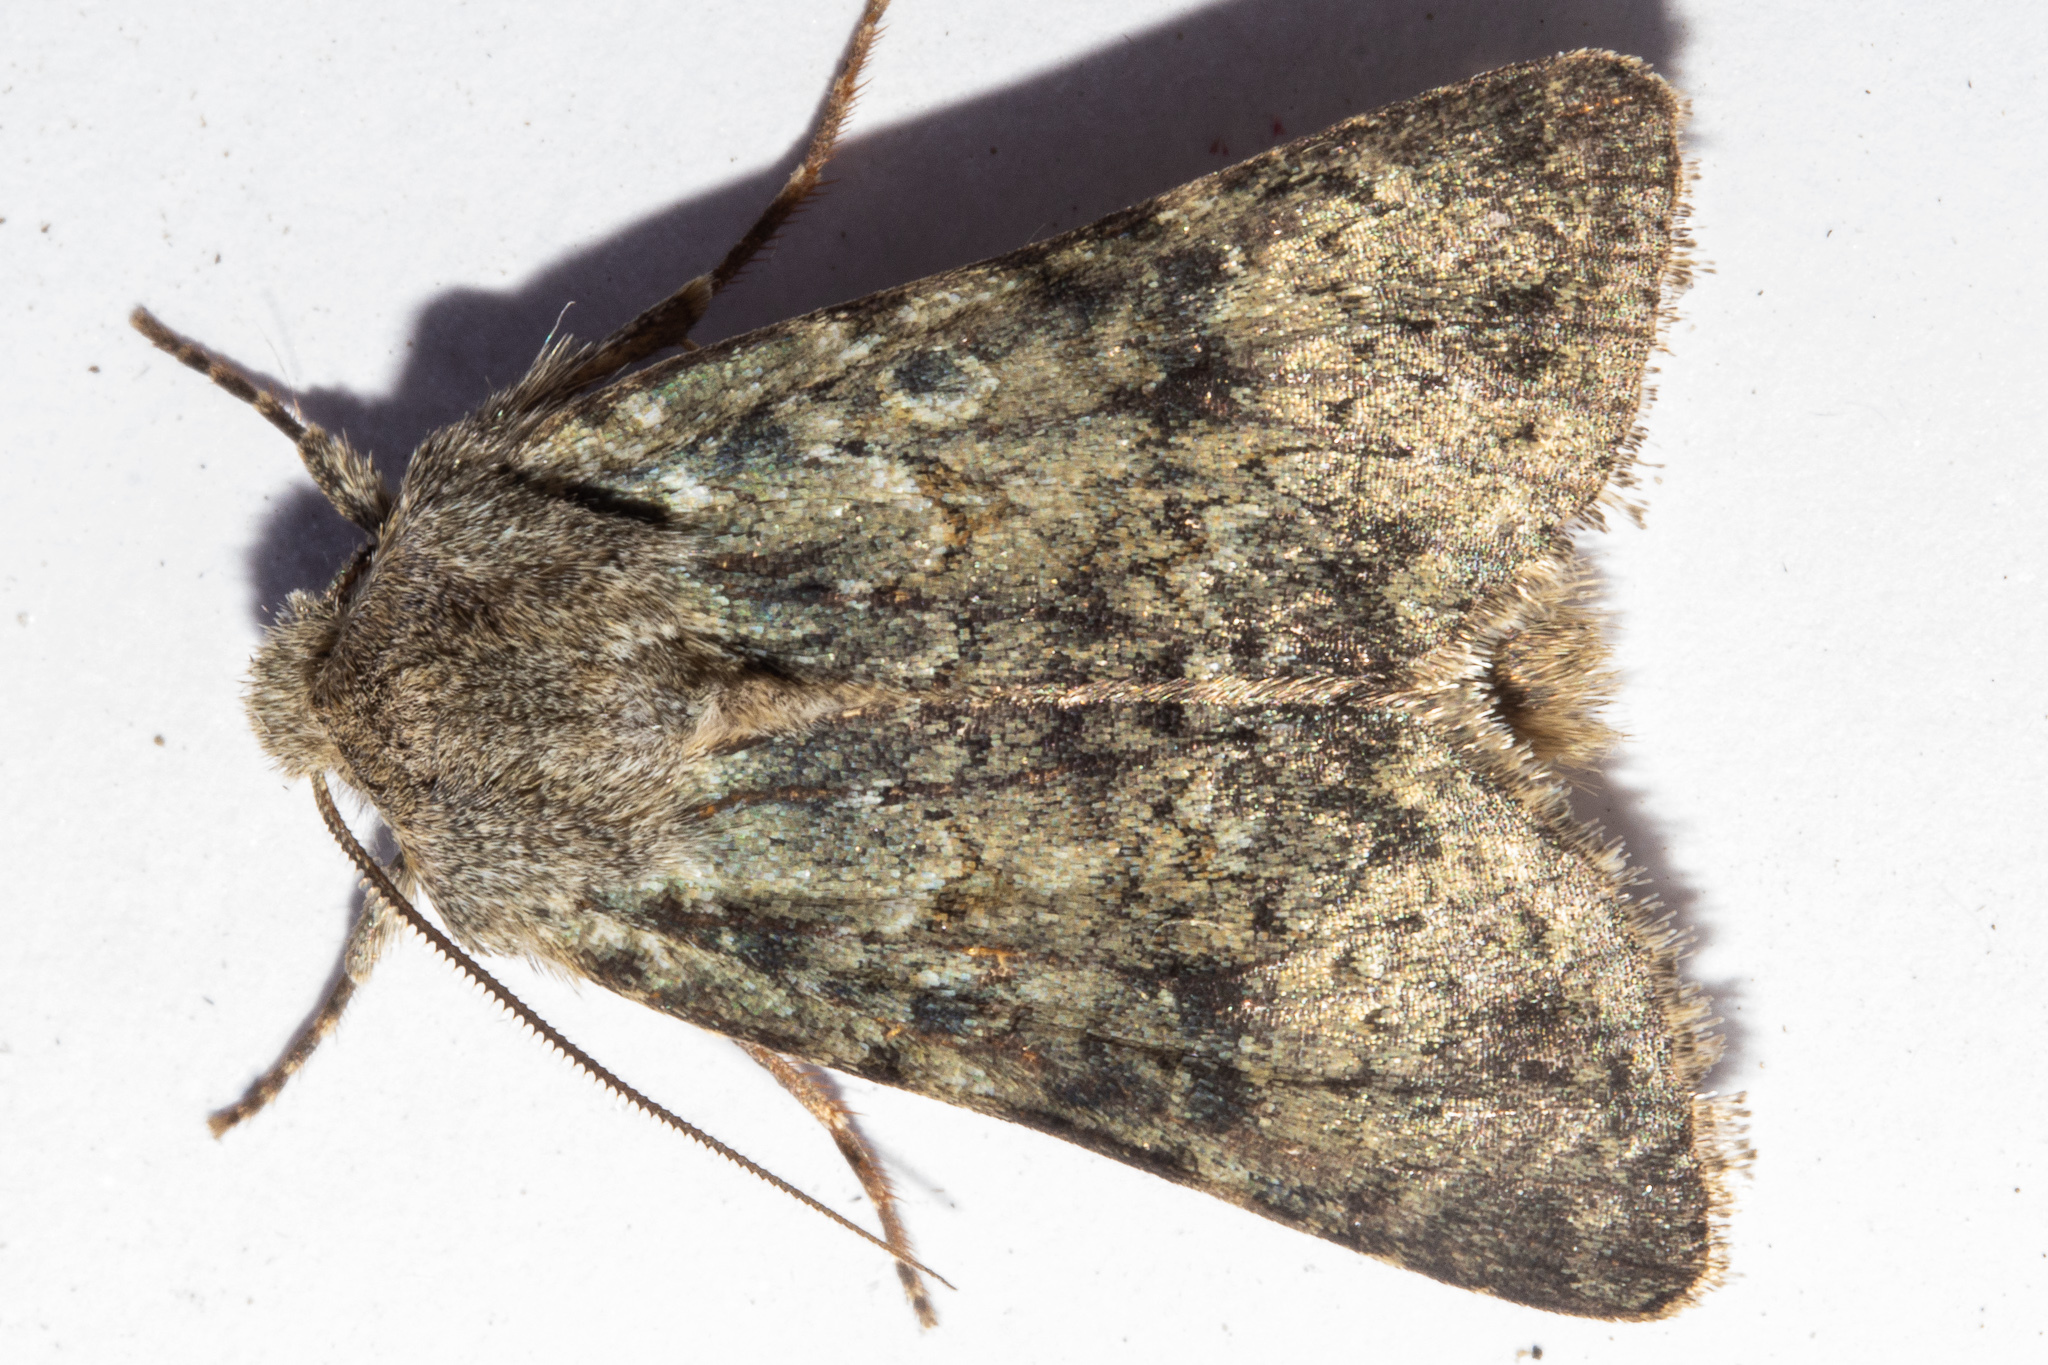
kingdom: Animalia
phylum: Arthropoda
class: Insecta
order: Lepidoptera
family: Noctuidae
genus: Ichneutica
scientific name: Ichneutica cuneata
